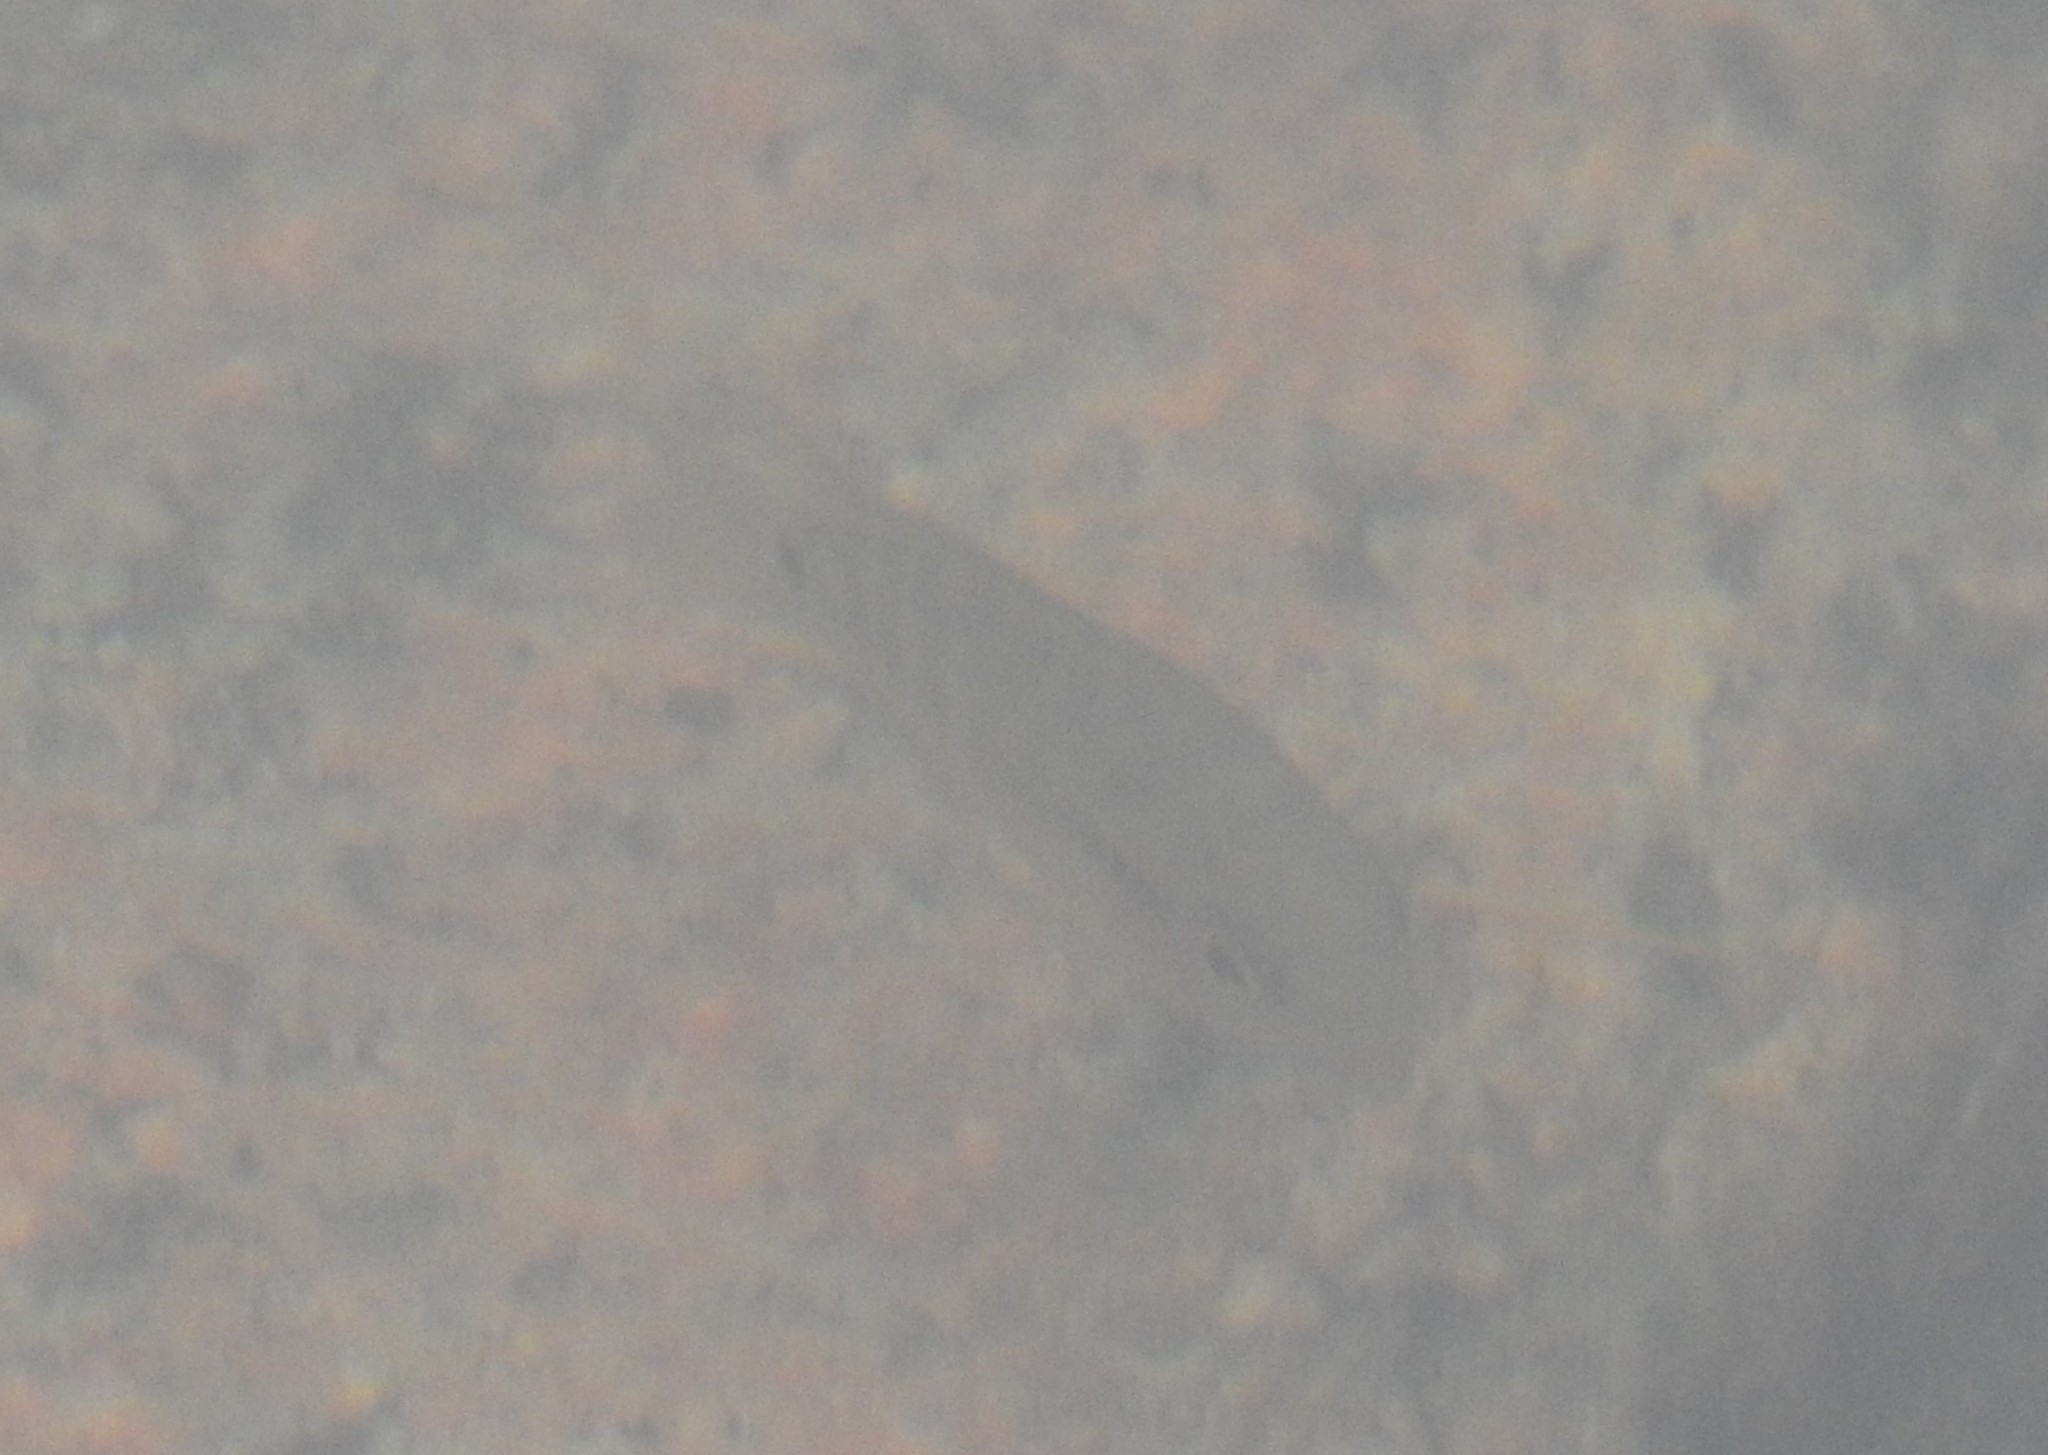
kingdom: Animalia
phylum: Chordata
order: Perciformes
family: Cichlidae
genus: Australoheros
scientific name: Australoheros facetus
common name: Chameleon cichlid
